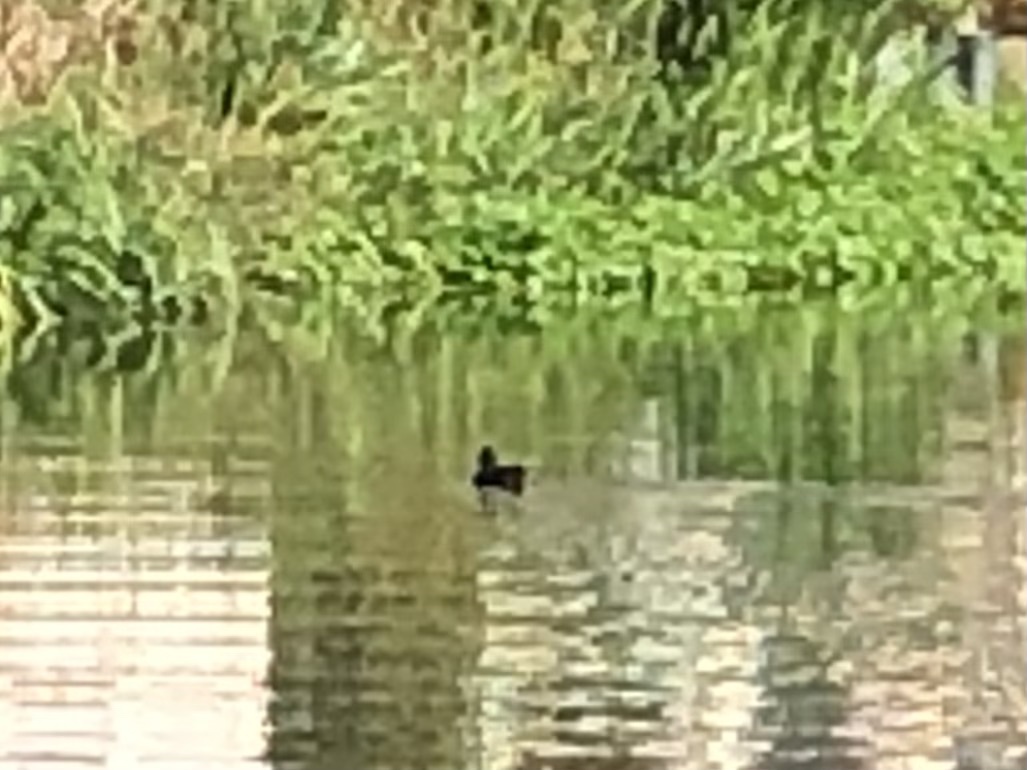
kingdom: Animalia
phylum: Chordata
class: Aves
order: Gruiformes
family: Rallidae
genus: Gallinula
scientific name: Gallinula chloropus
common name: Common moorhen
